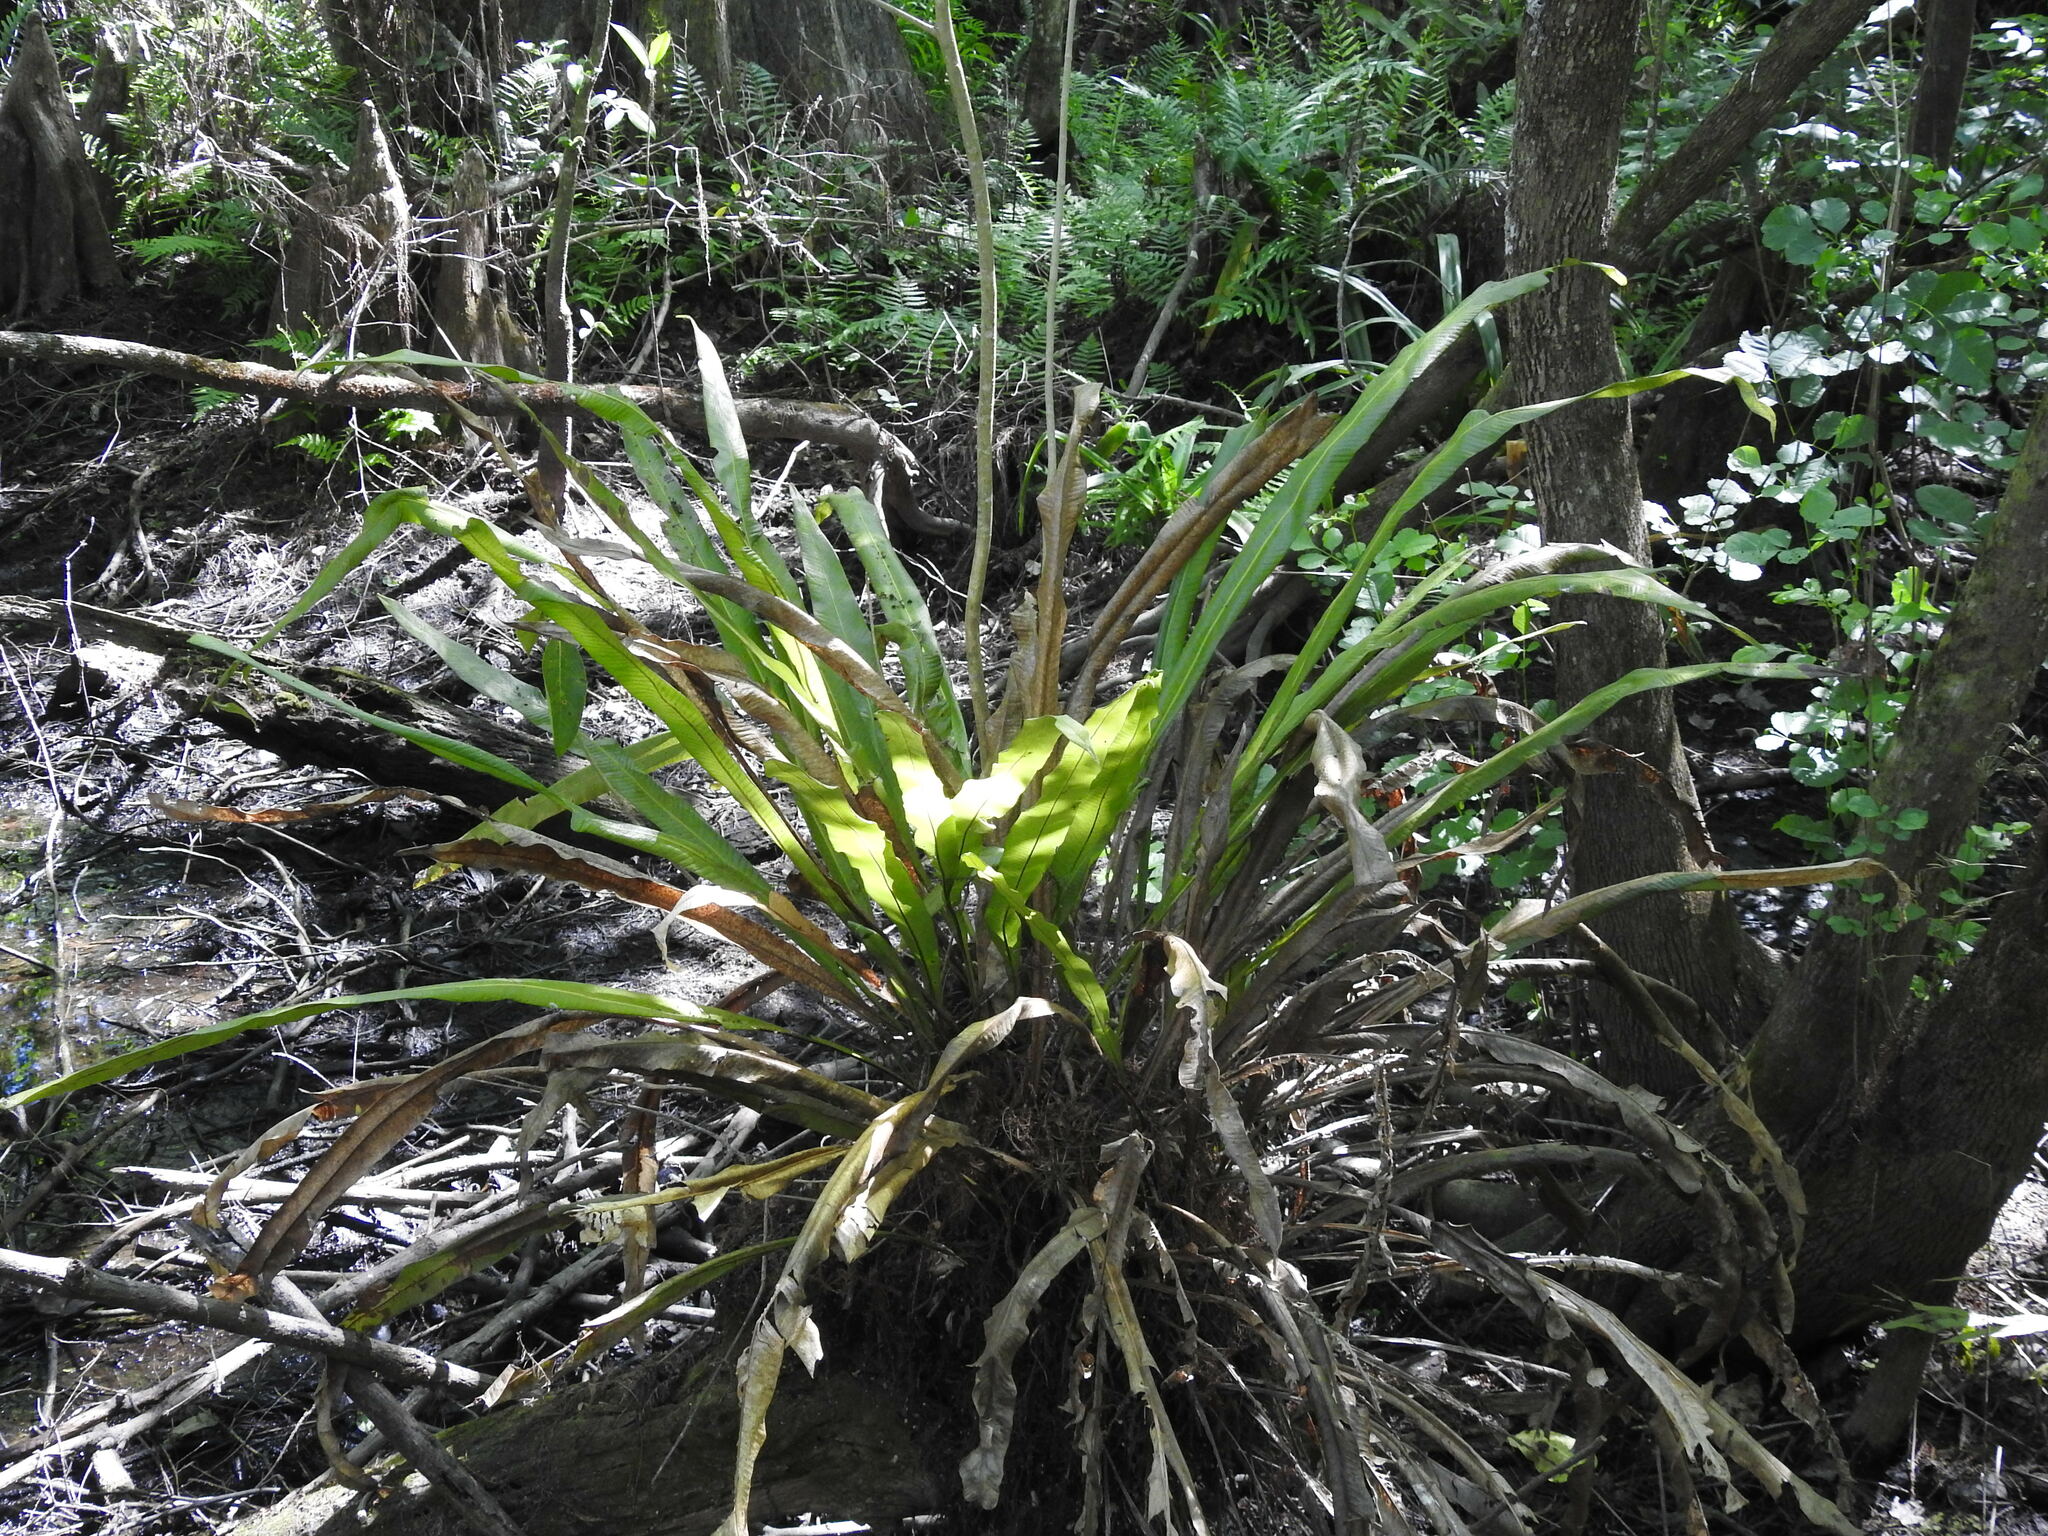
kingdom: Plantae
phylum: Tracheophyta
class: Polypodiopsida
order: Polypodiales
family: Polypodiaceae
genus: Campyloneurum
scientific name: Campyloneurum phyllitidis
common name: Cow-tongue fern
